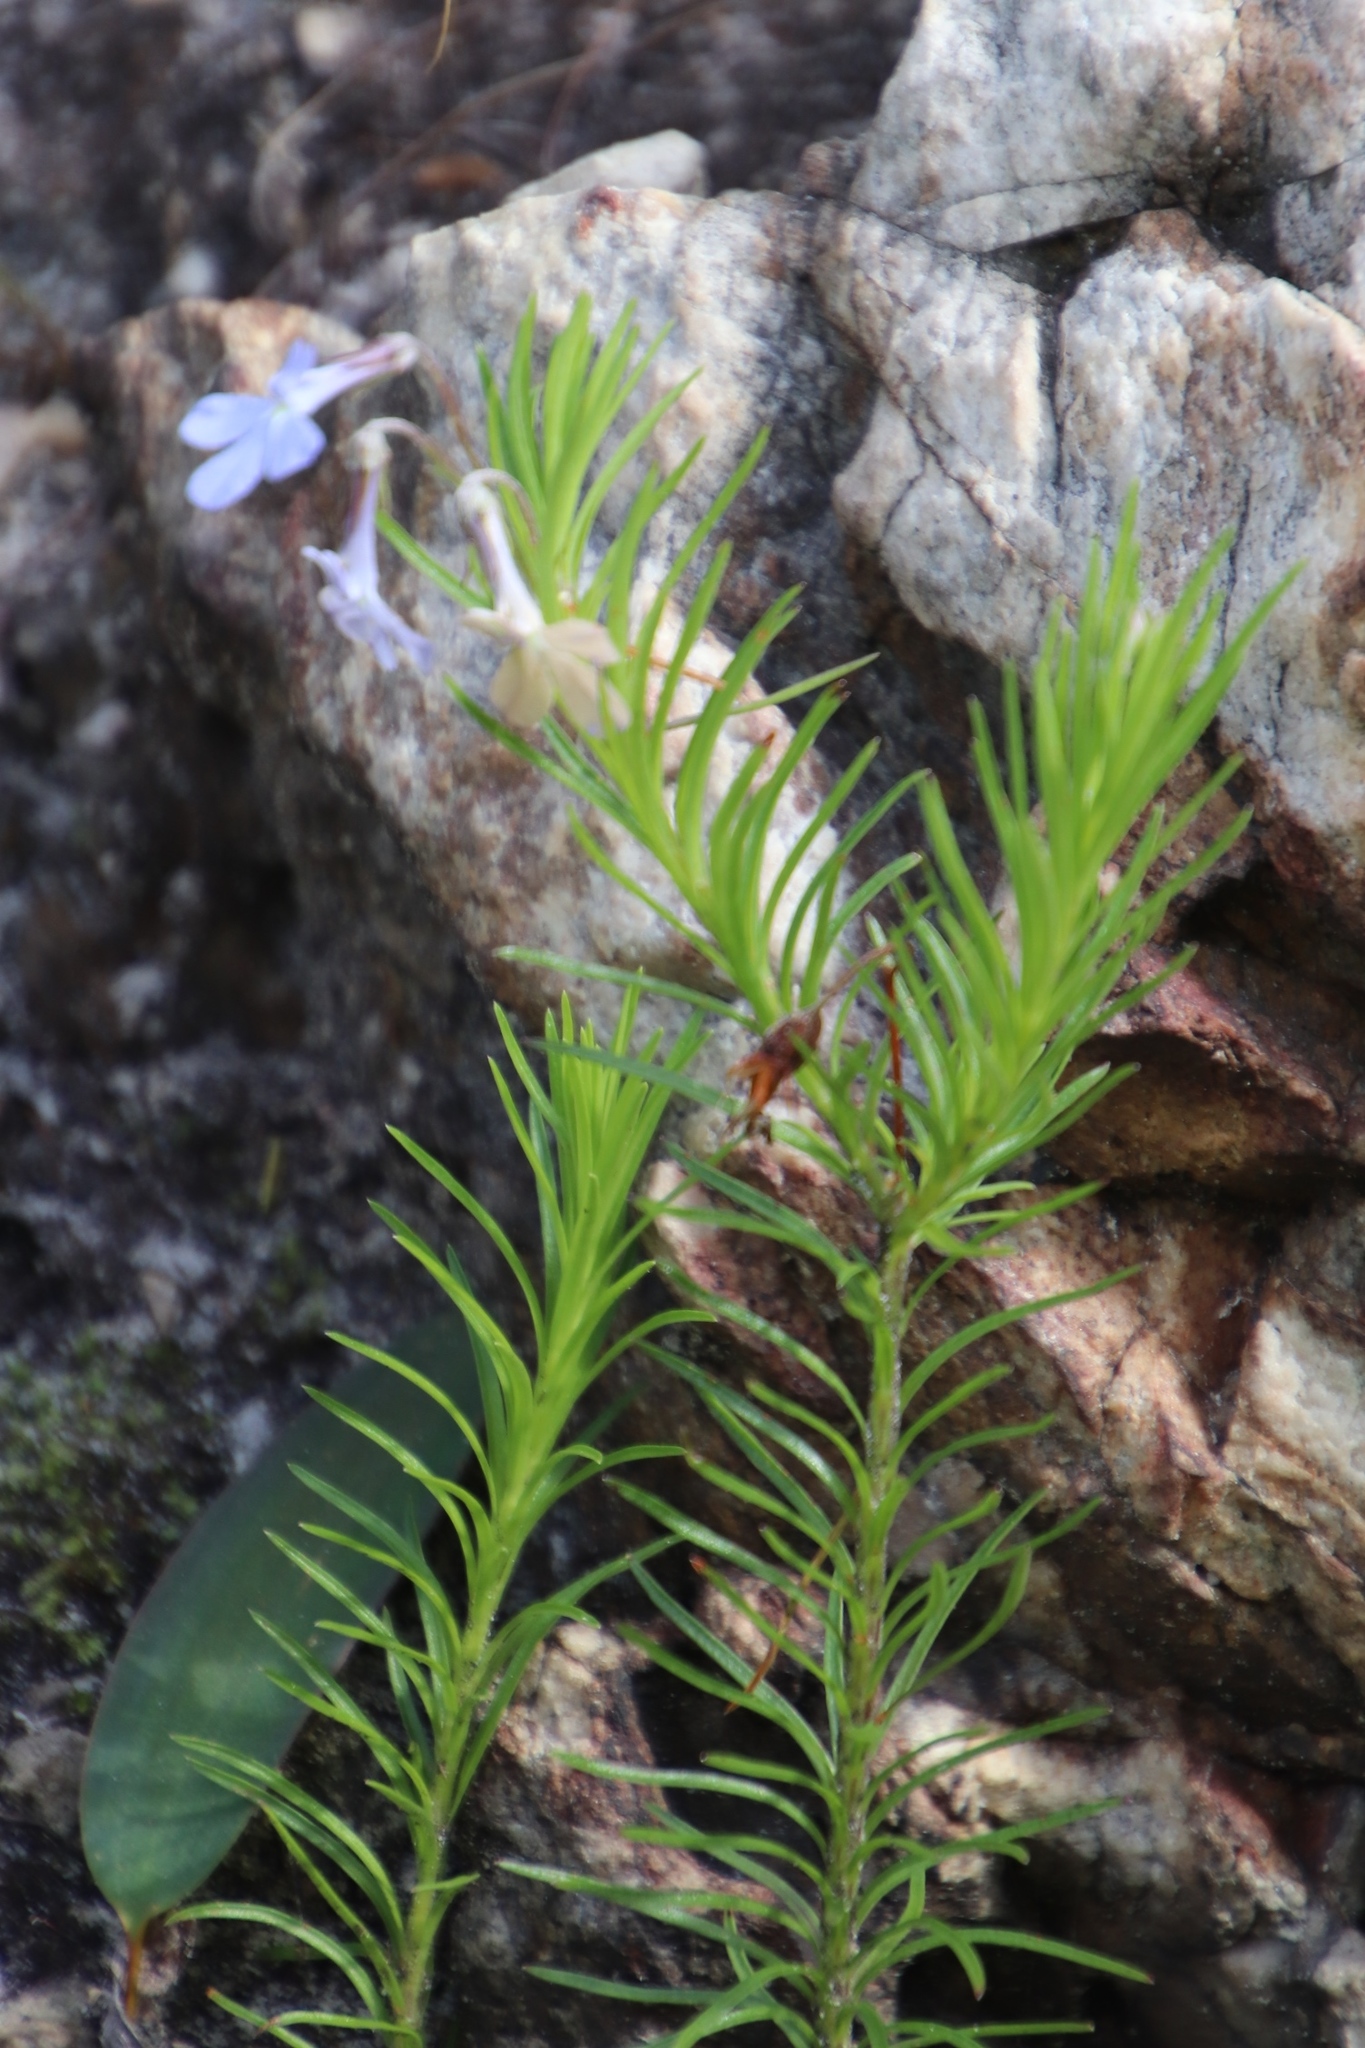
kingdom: Plantae
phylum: Tracheophyta
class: Magnoliopsida
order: Asterales
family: Campanulaceae
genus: Lobelia
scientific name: Lobelia pinifolia
